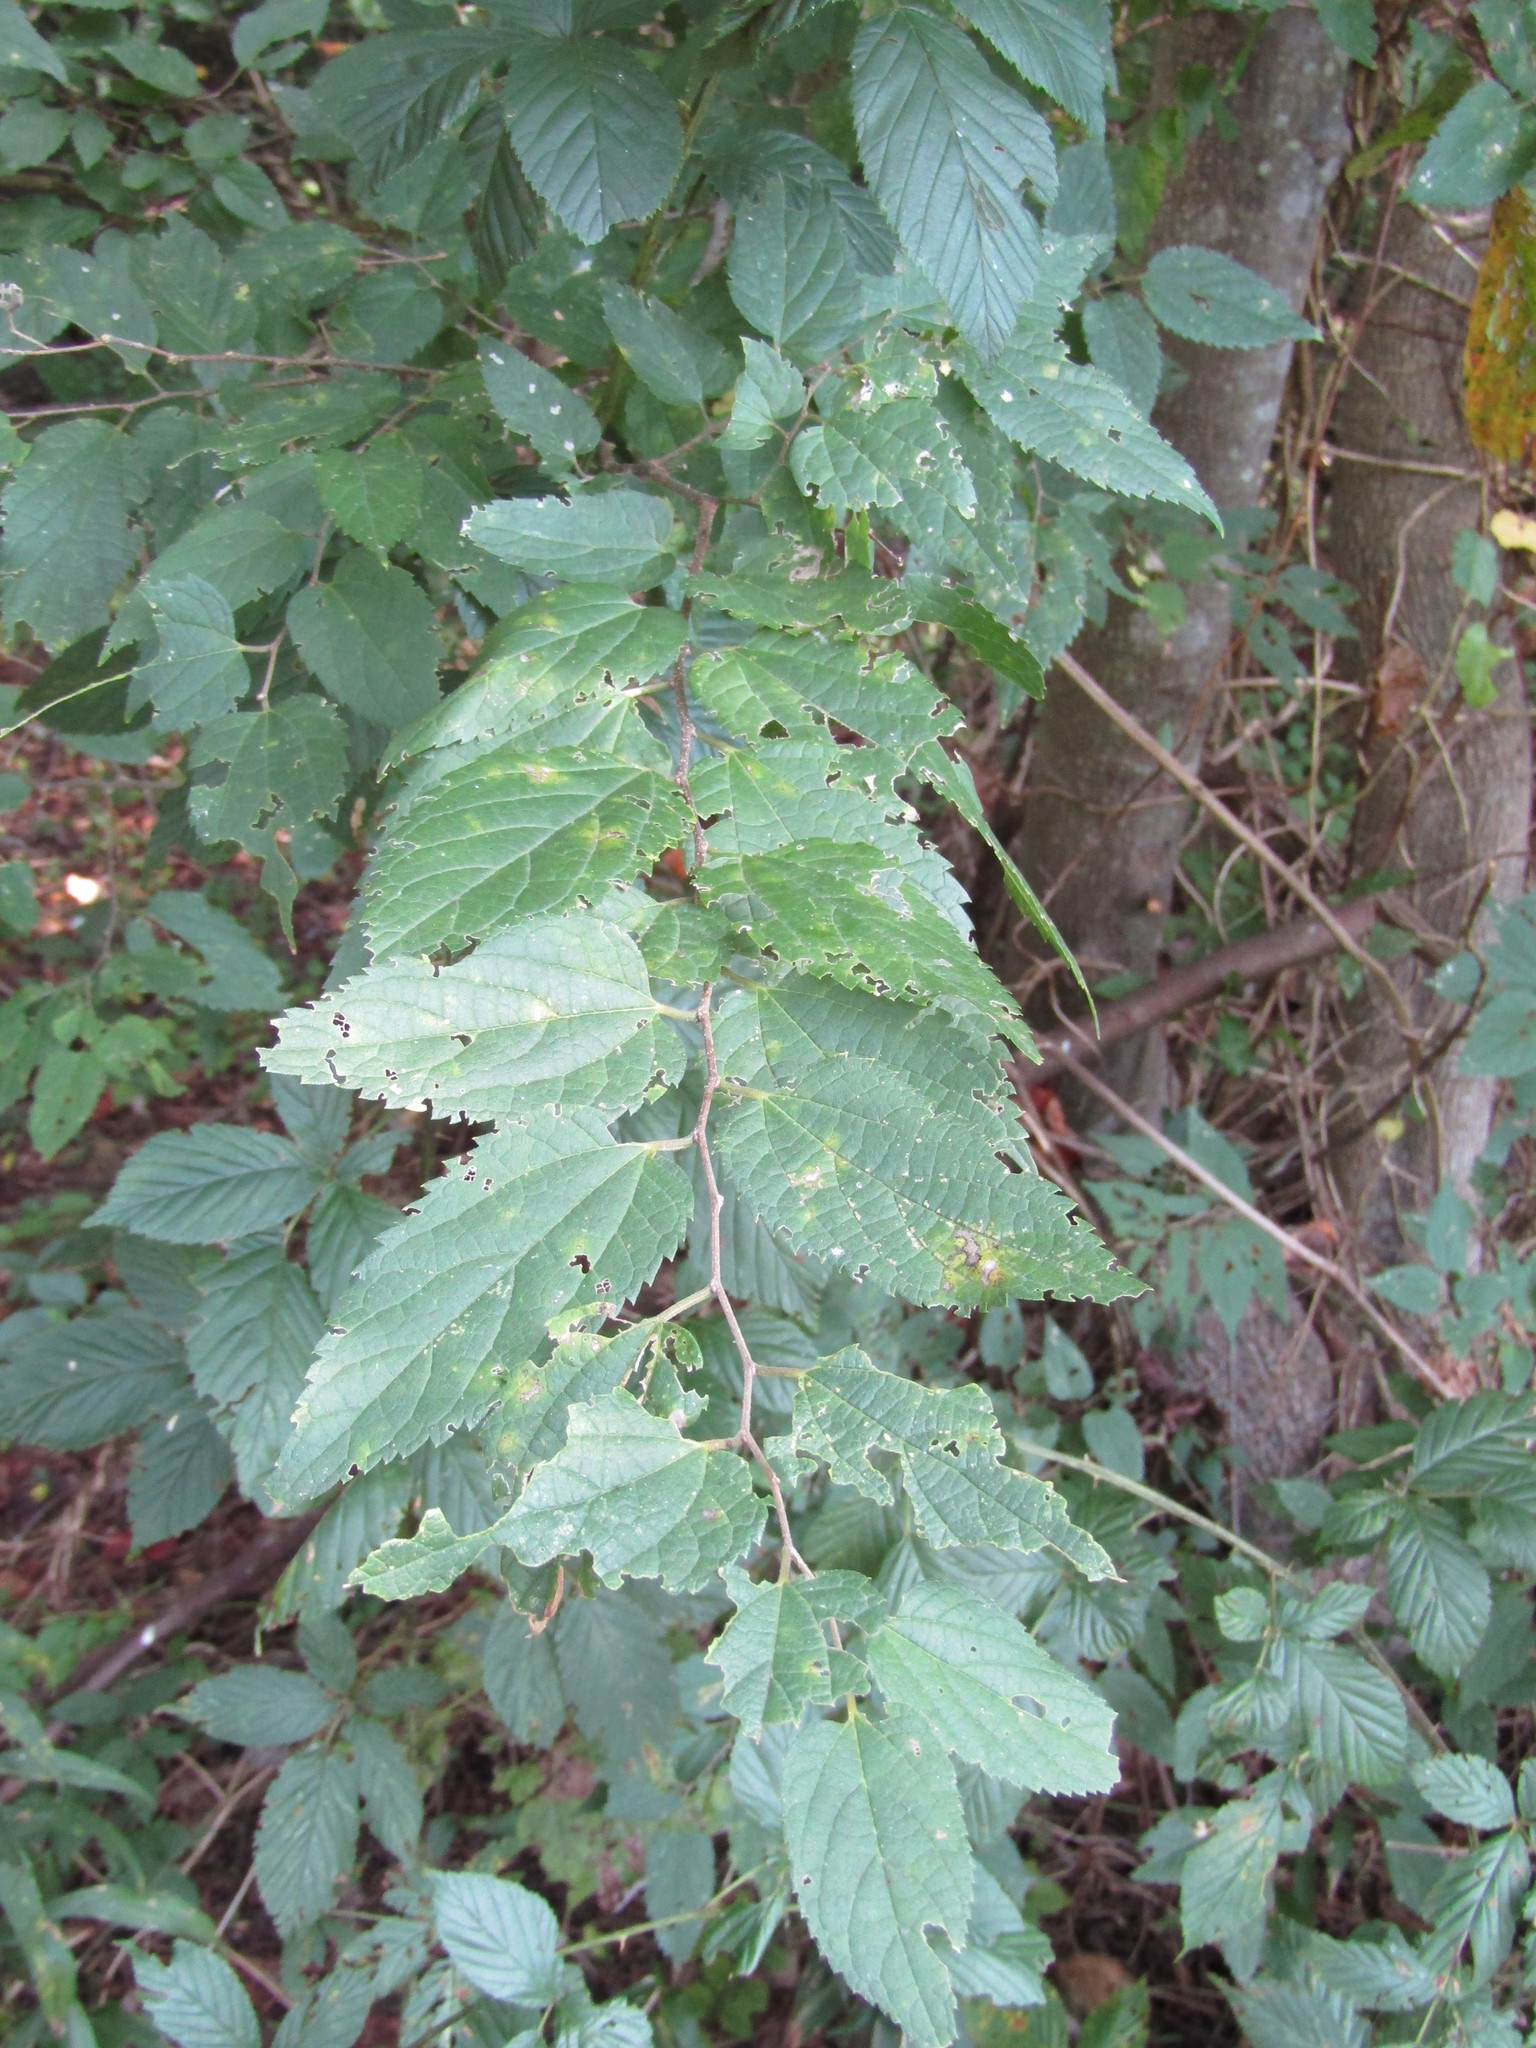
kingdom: Plantae
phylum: Tracheophyta
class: Magnoliopsida
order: Rosales
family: Cannabaceae
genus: Celtis
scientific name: Celtis occidentalis
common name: Common hackberry
